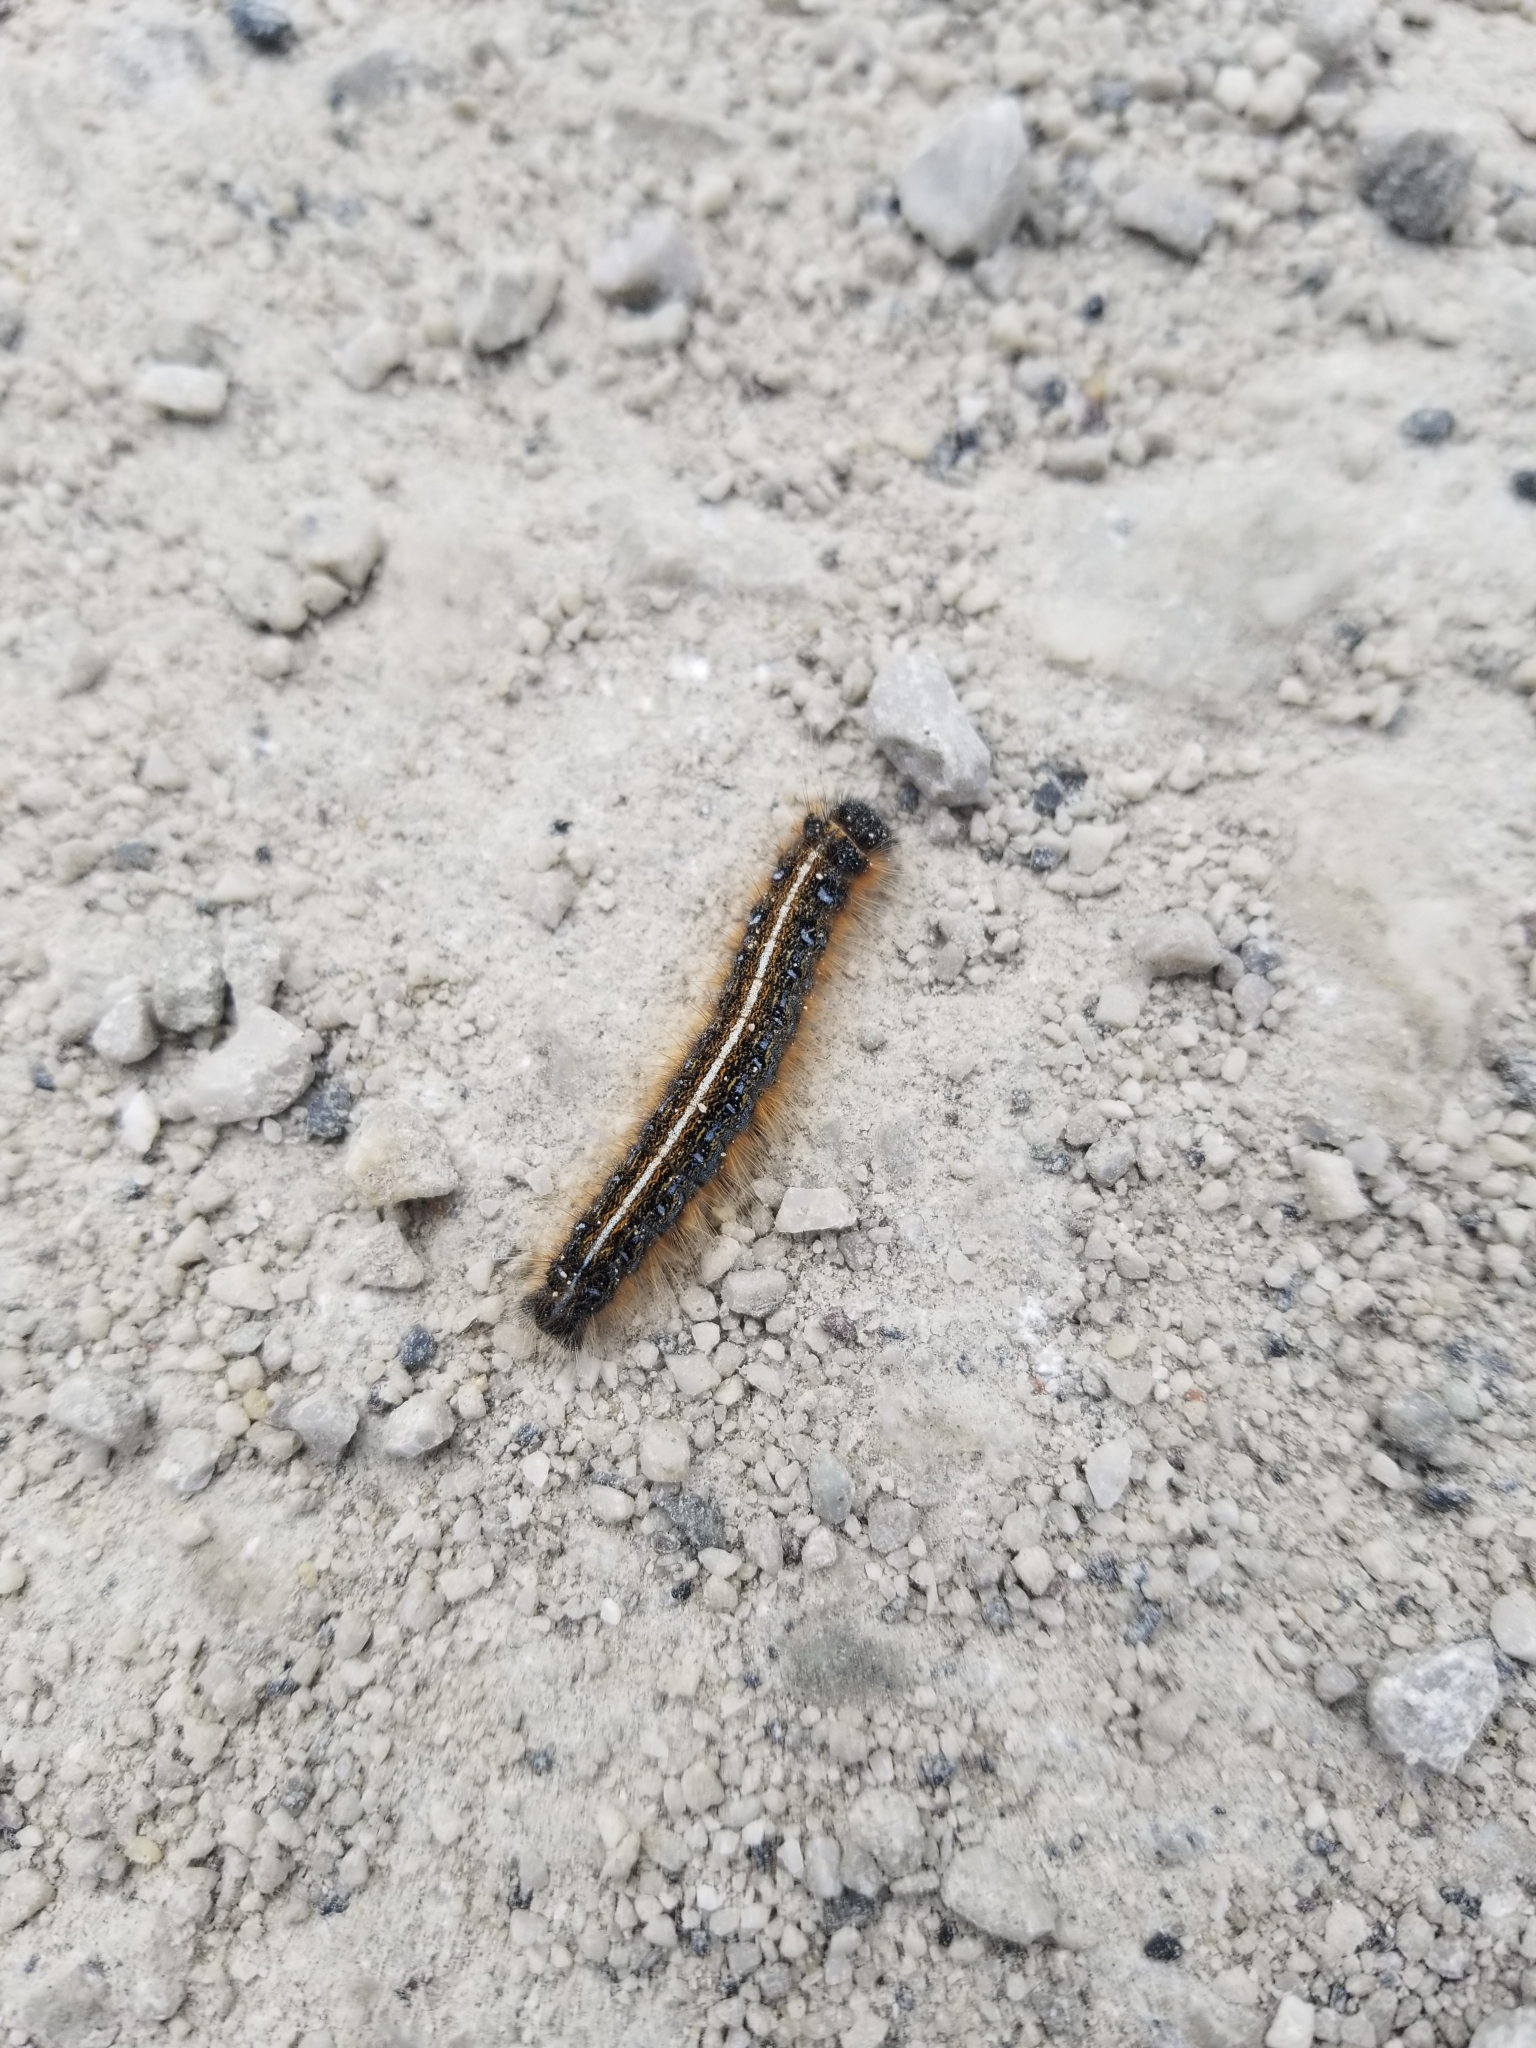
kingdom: Animalia
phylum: Arthropoda
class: Insecta
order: Lepidoptera
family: Lasiocampidae
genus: Malacosoma
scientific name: Malacosoma americana
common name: Eastern tent caterpillar moth
